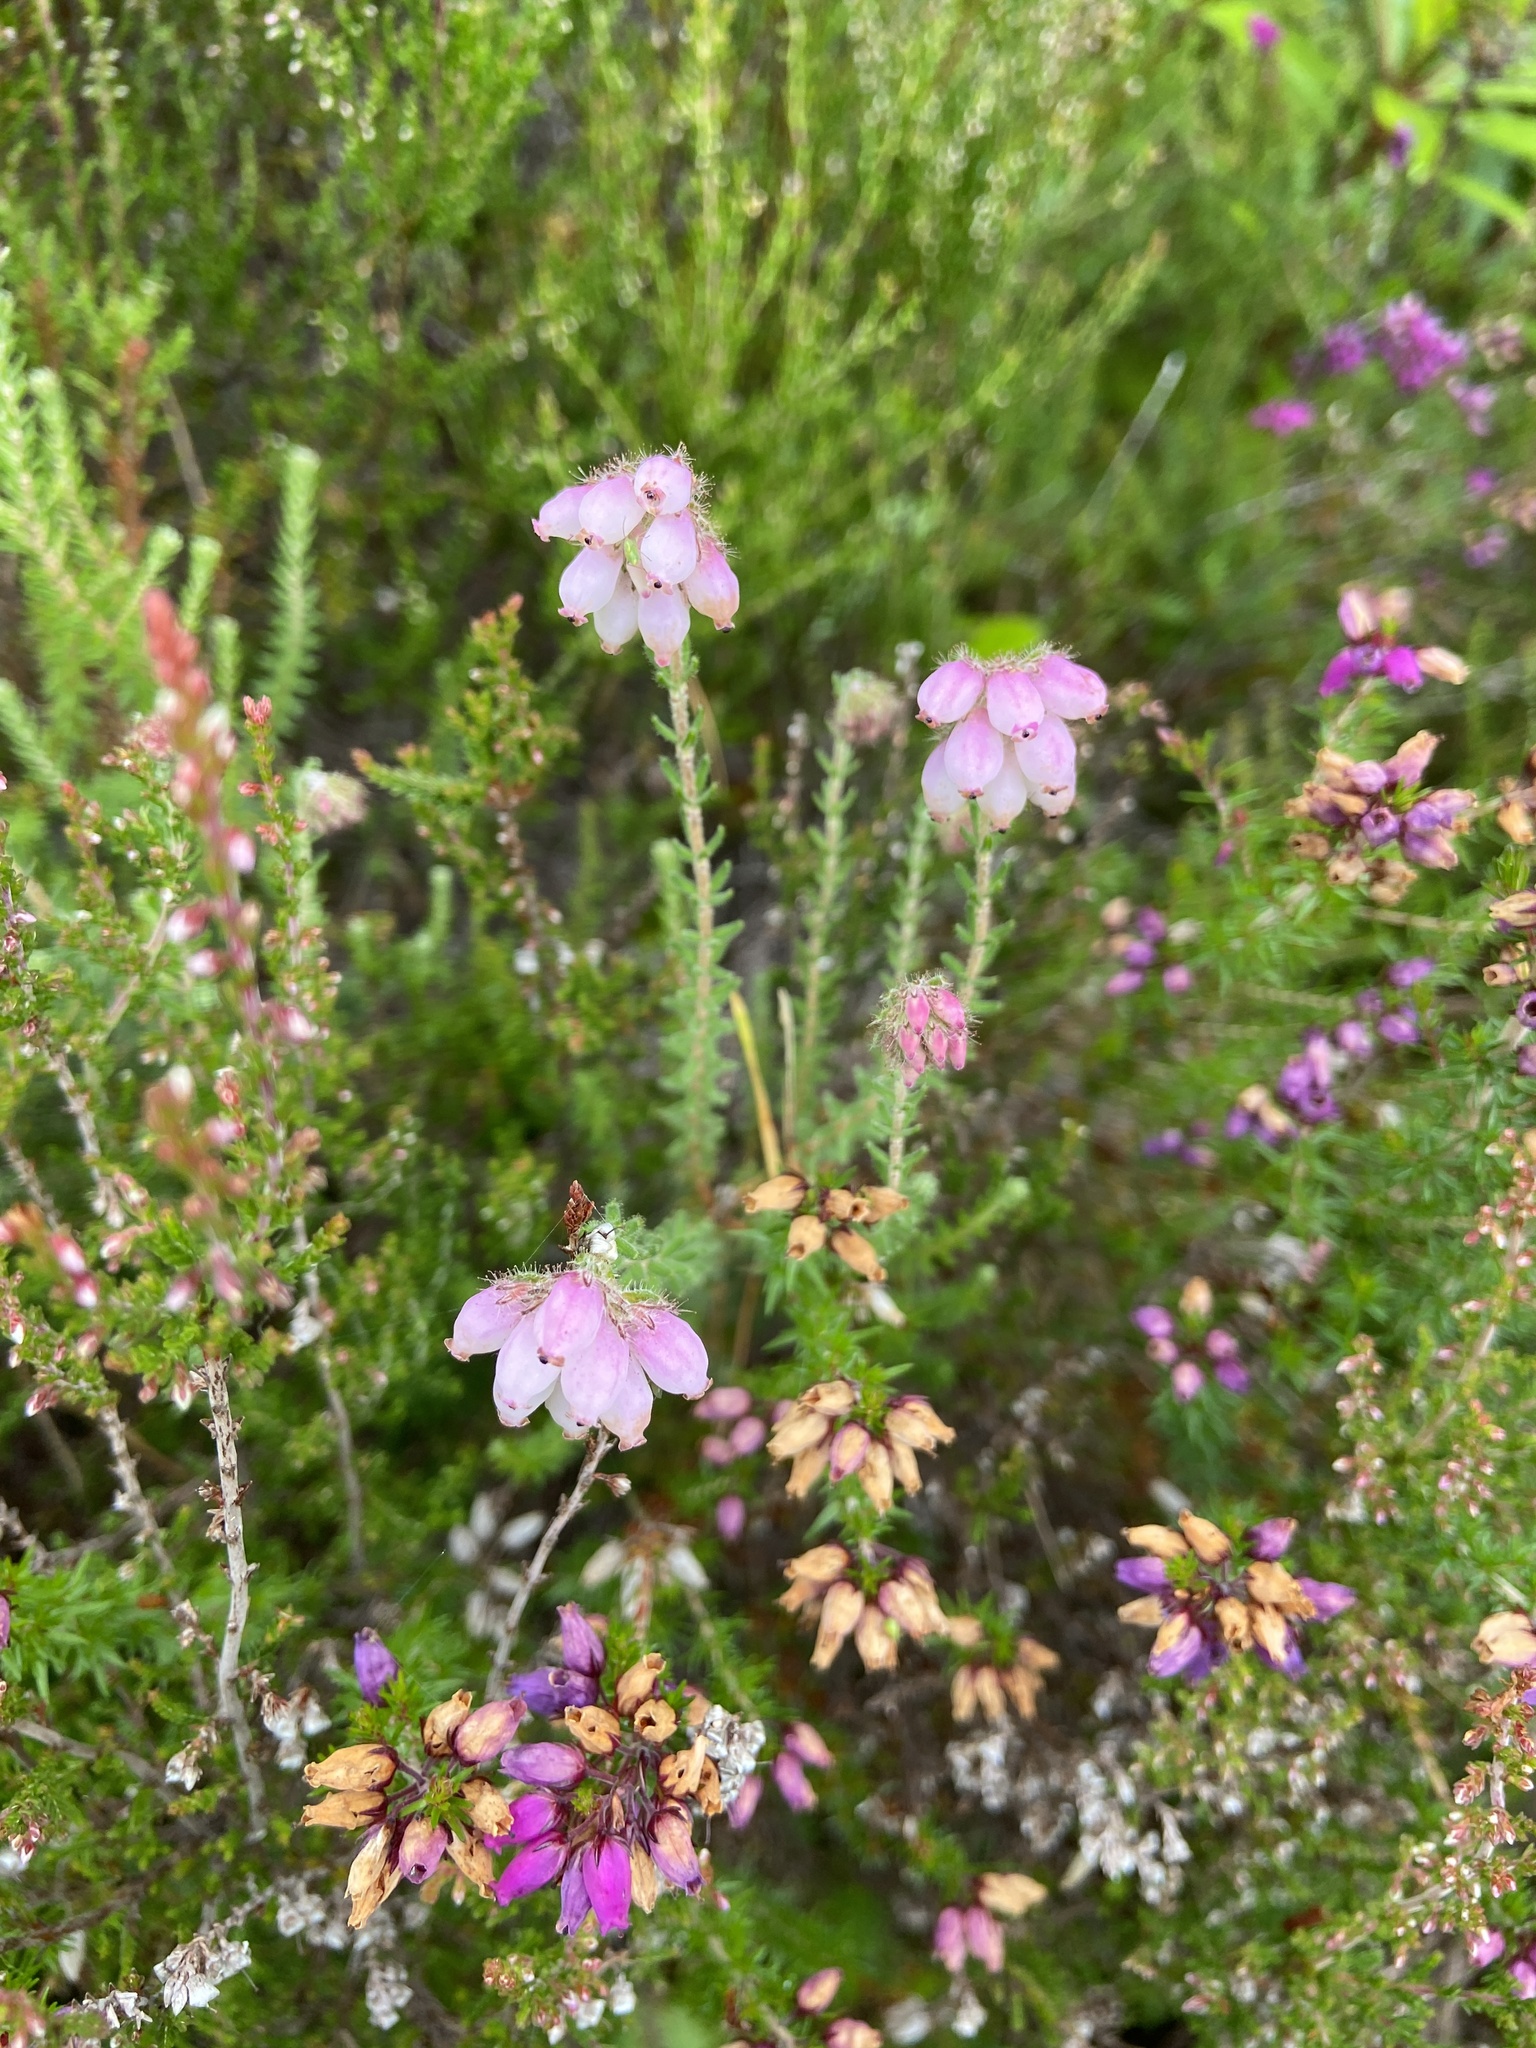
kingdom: Plantae
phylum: Tracheophyta
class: Magnoliopsida
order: Ericales
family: Ericaceae
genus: Erica
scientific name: Erica tetralix
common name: Cross-leaved heath
